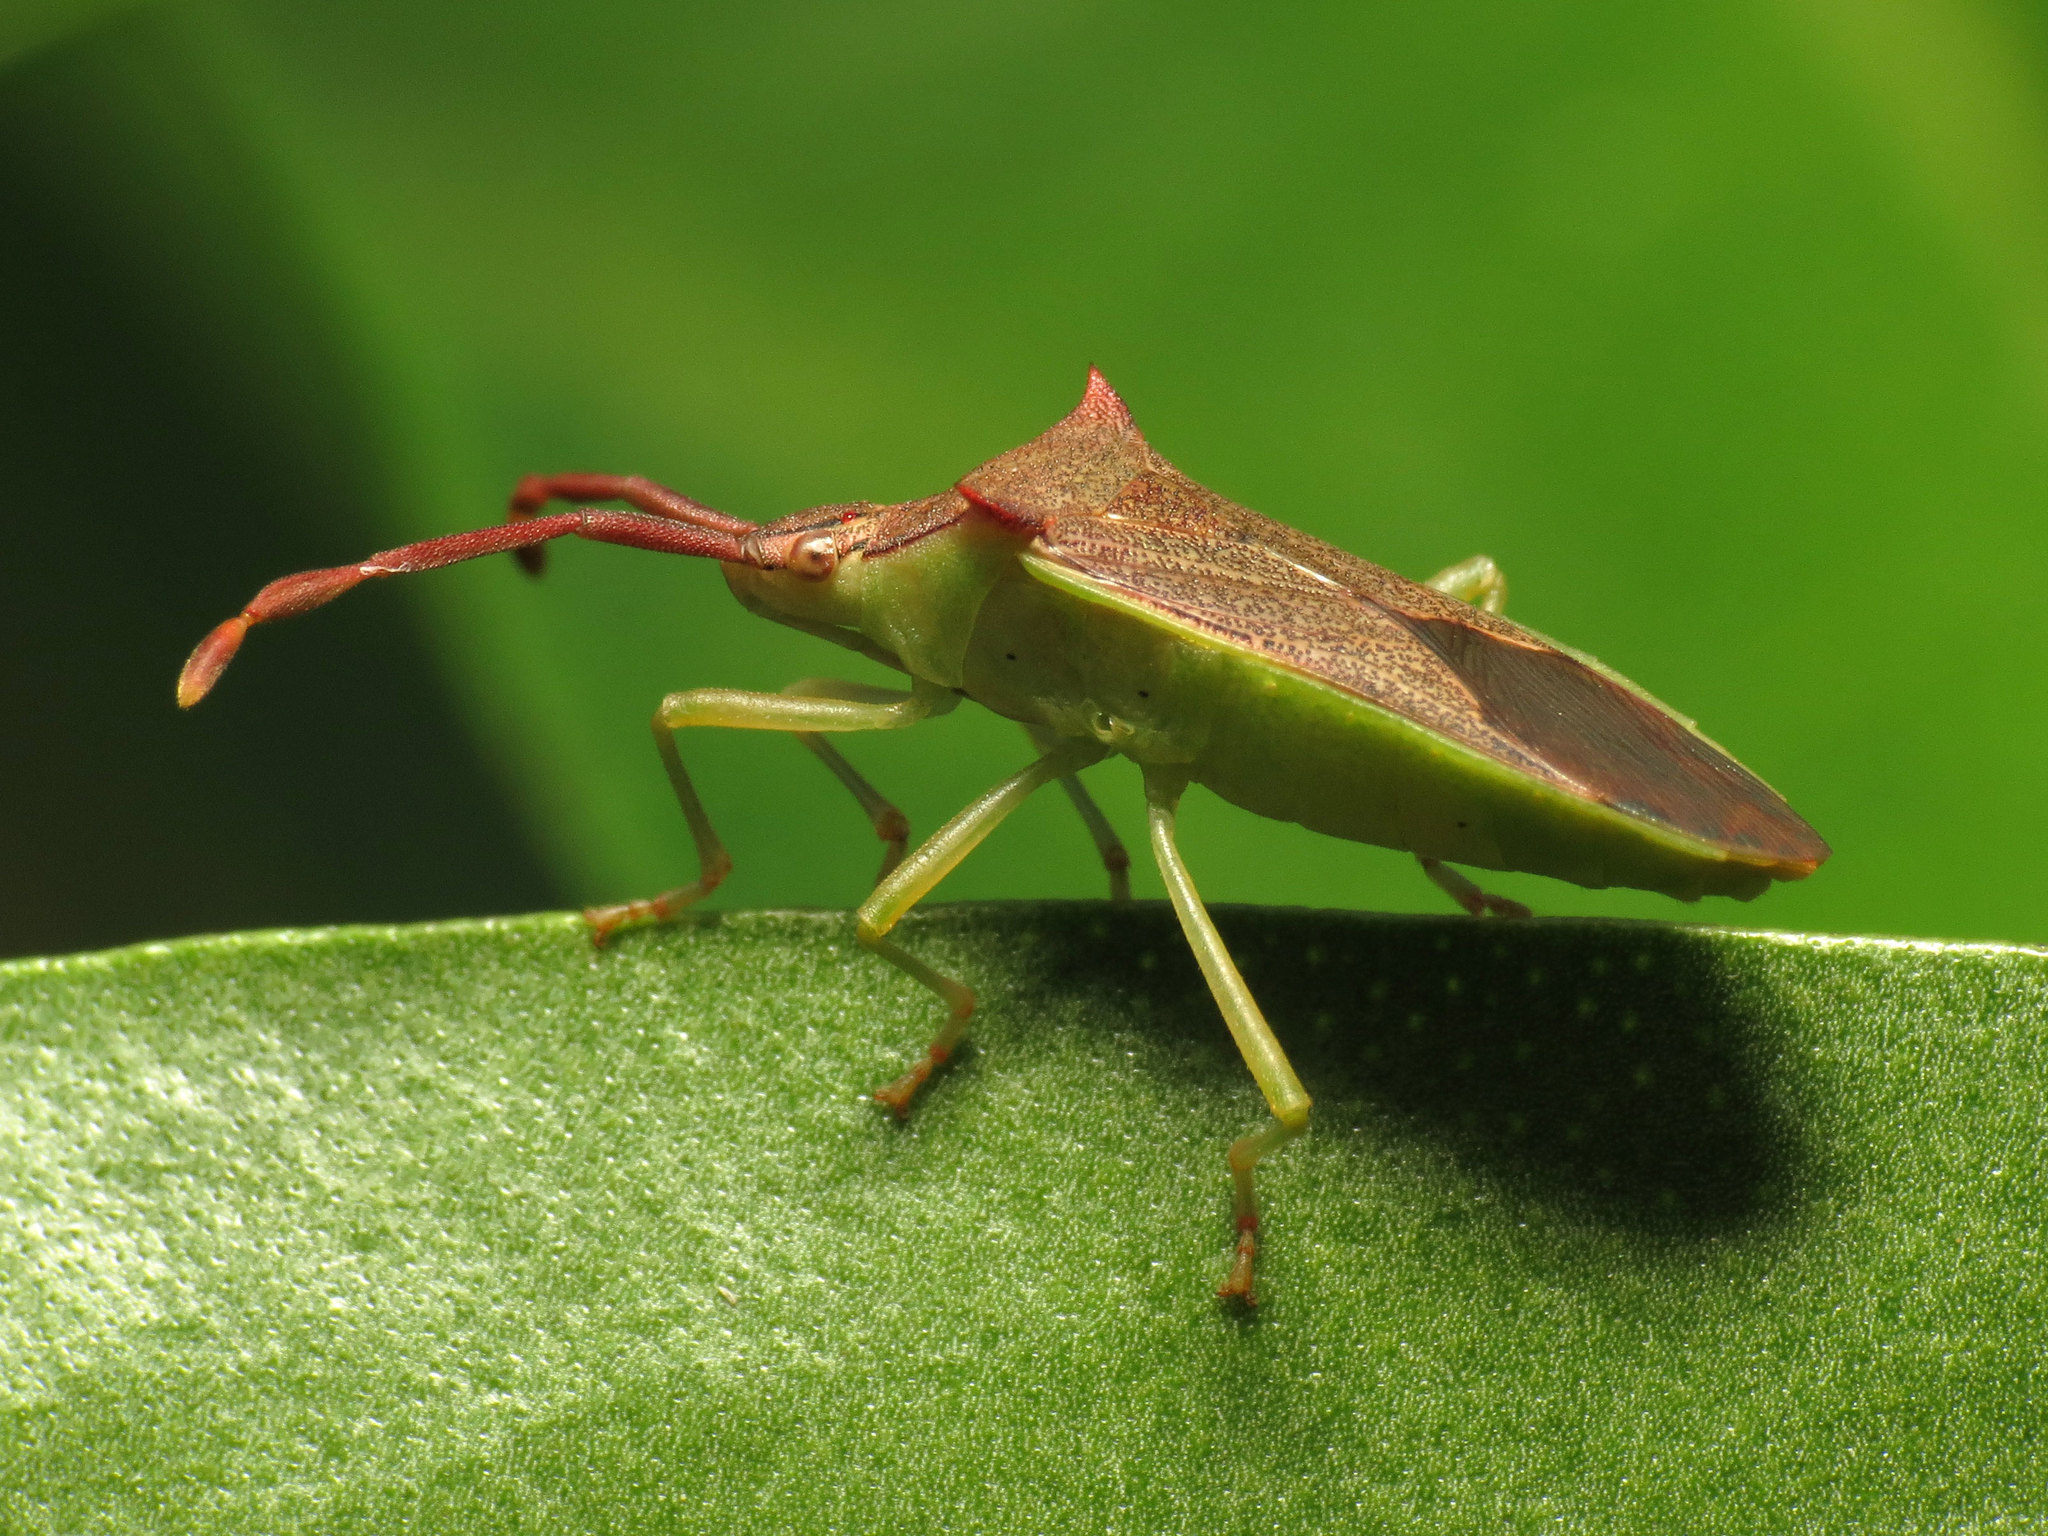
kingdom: Animalia
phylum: Arthropoda
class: Insecta
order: Hemiptera
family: Coreidae
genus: Plinachtus
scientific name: Plinachtus imitator
